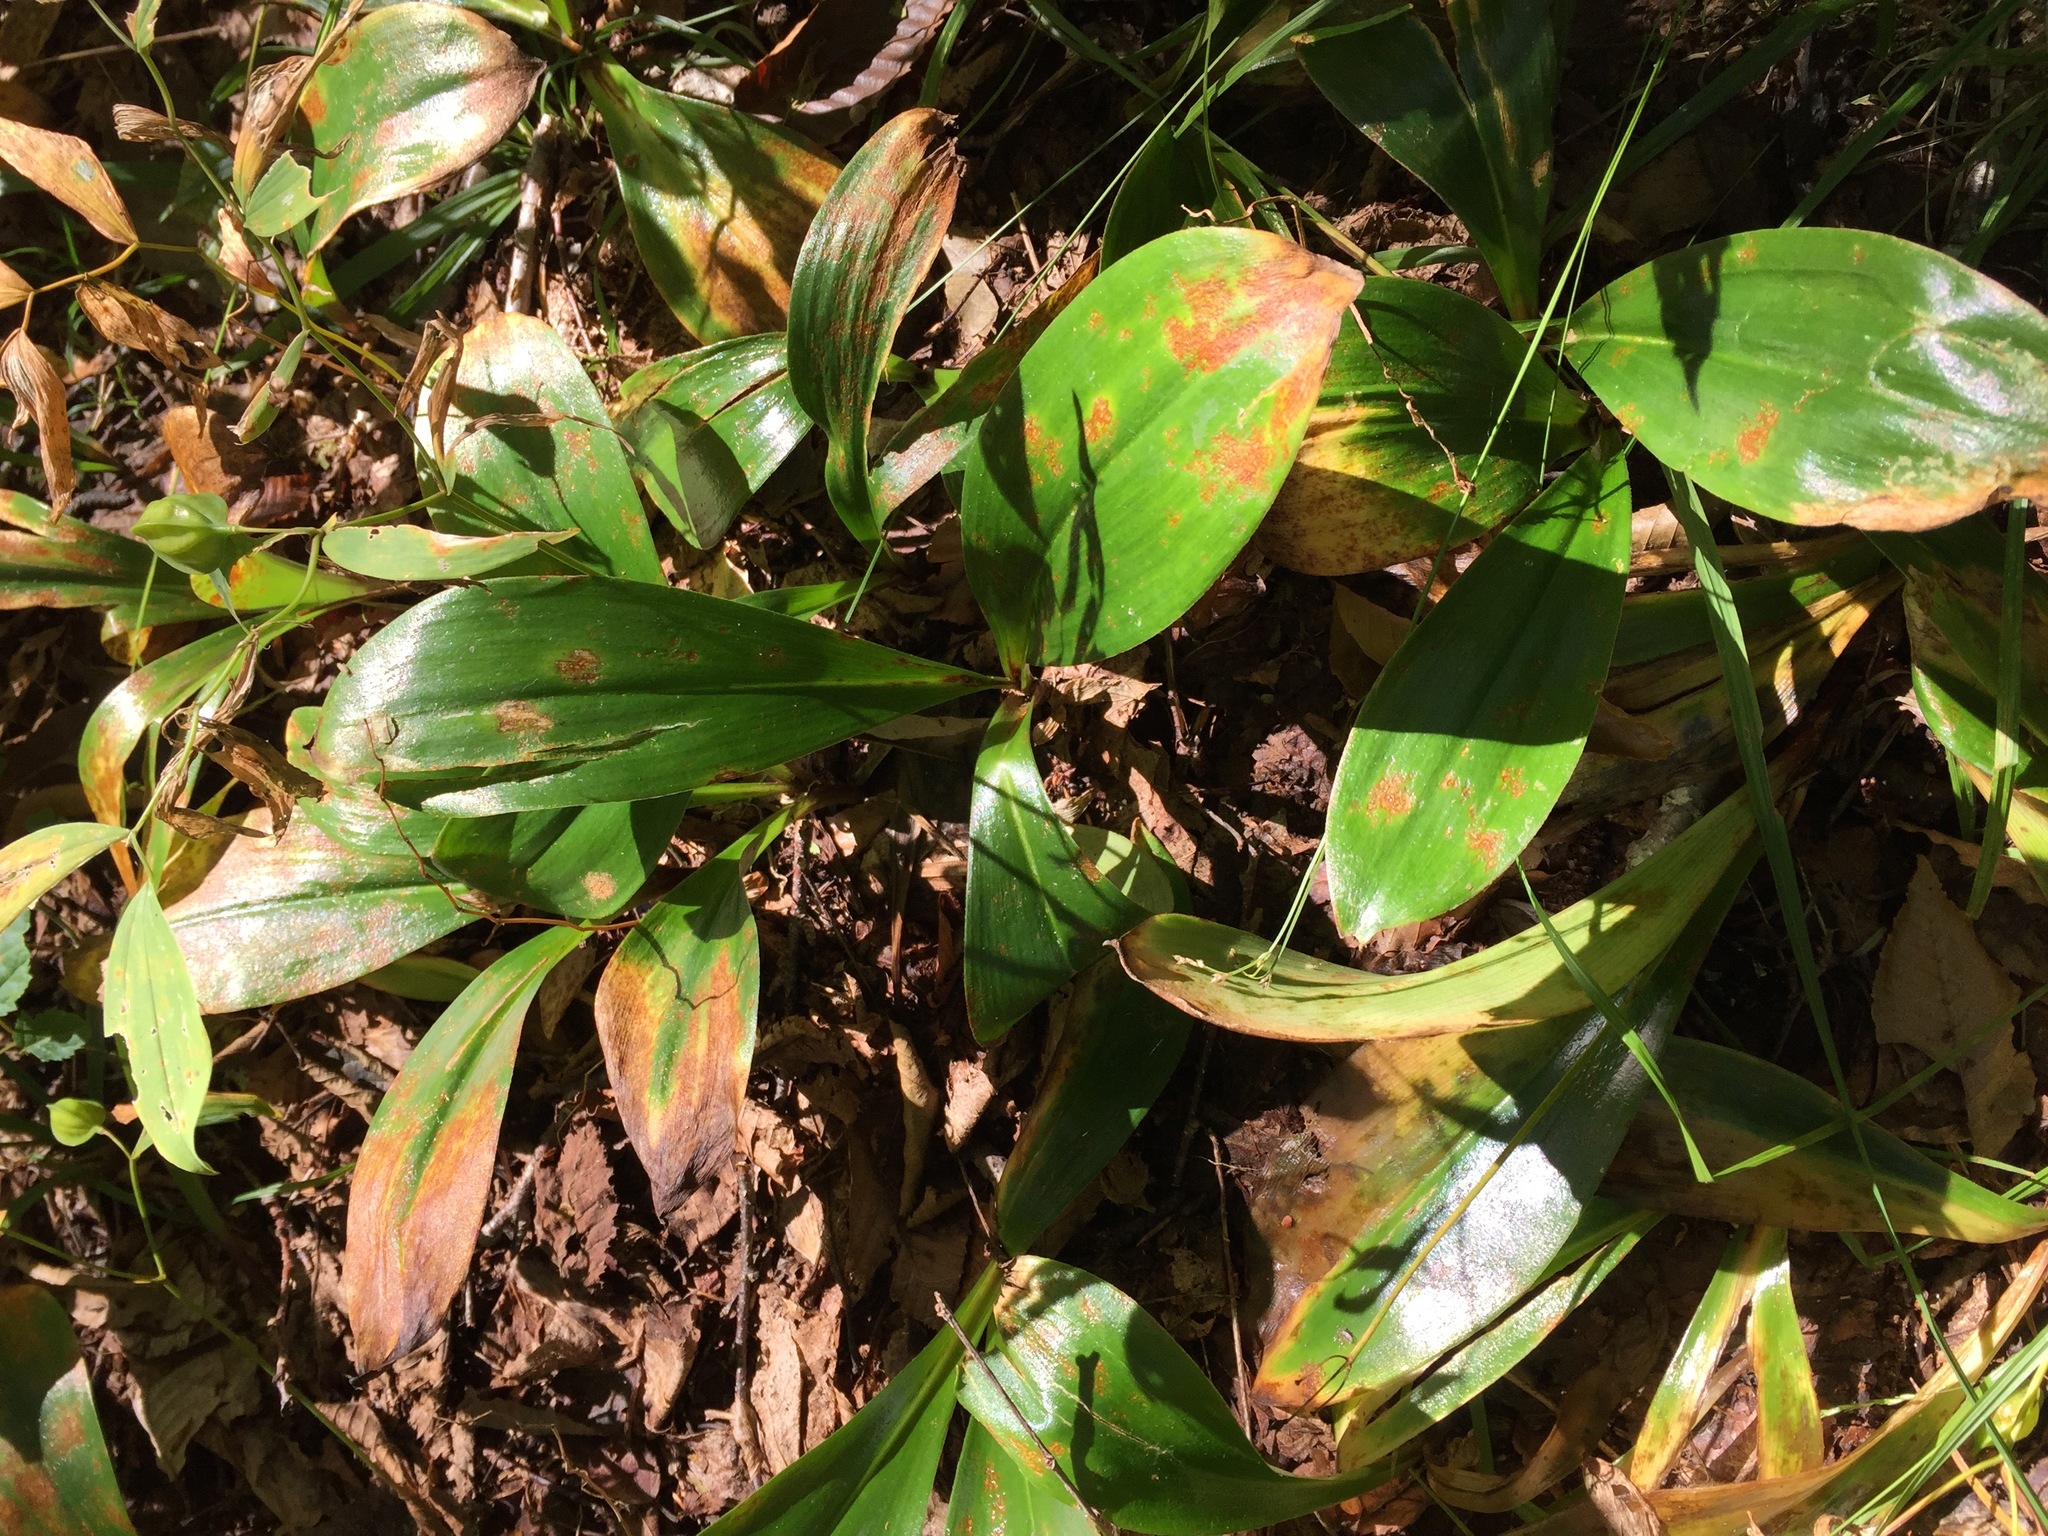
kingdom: Plantae
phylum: Tracheophyta
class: Liliopsida
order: Liliales
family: Liliaceae
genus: Clintonia
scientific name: Clintonia borealis
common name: Yellow clintonia
